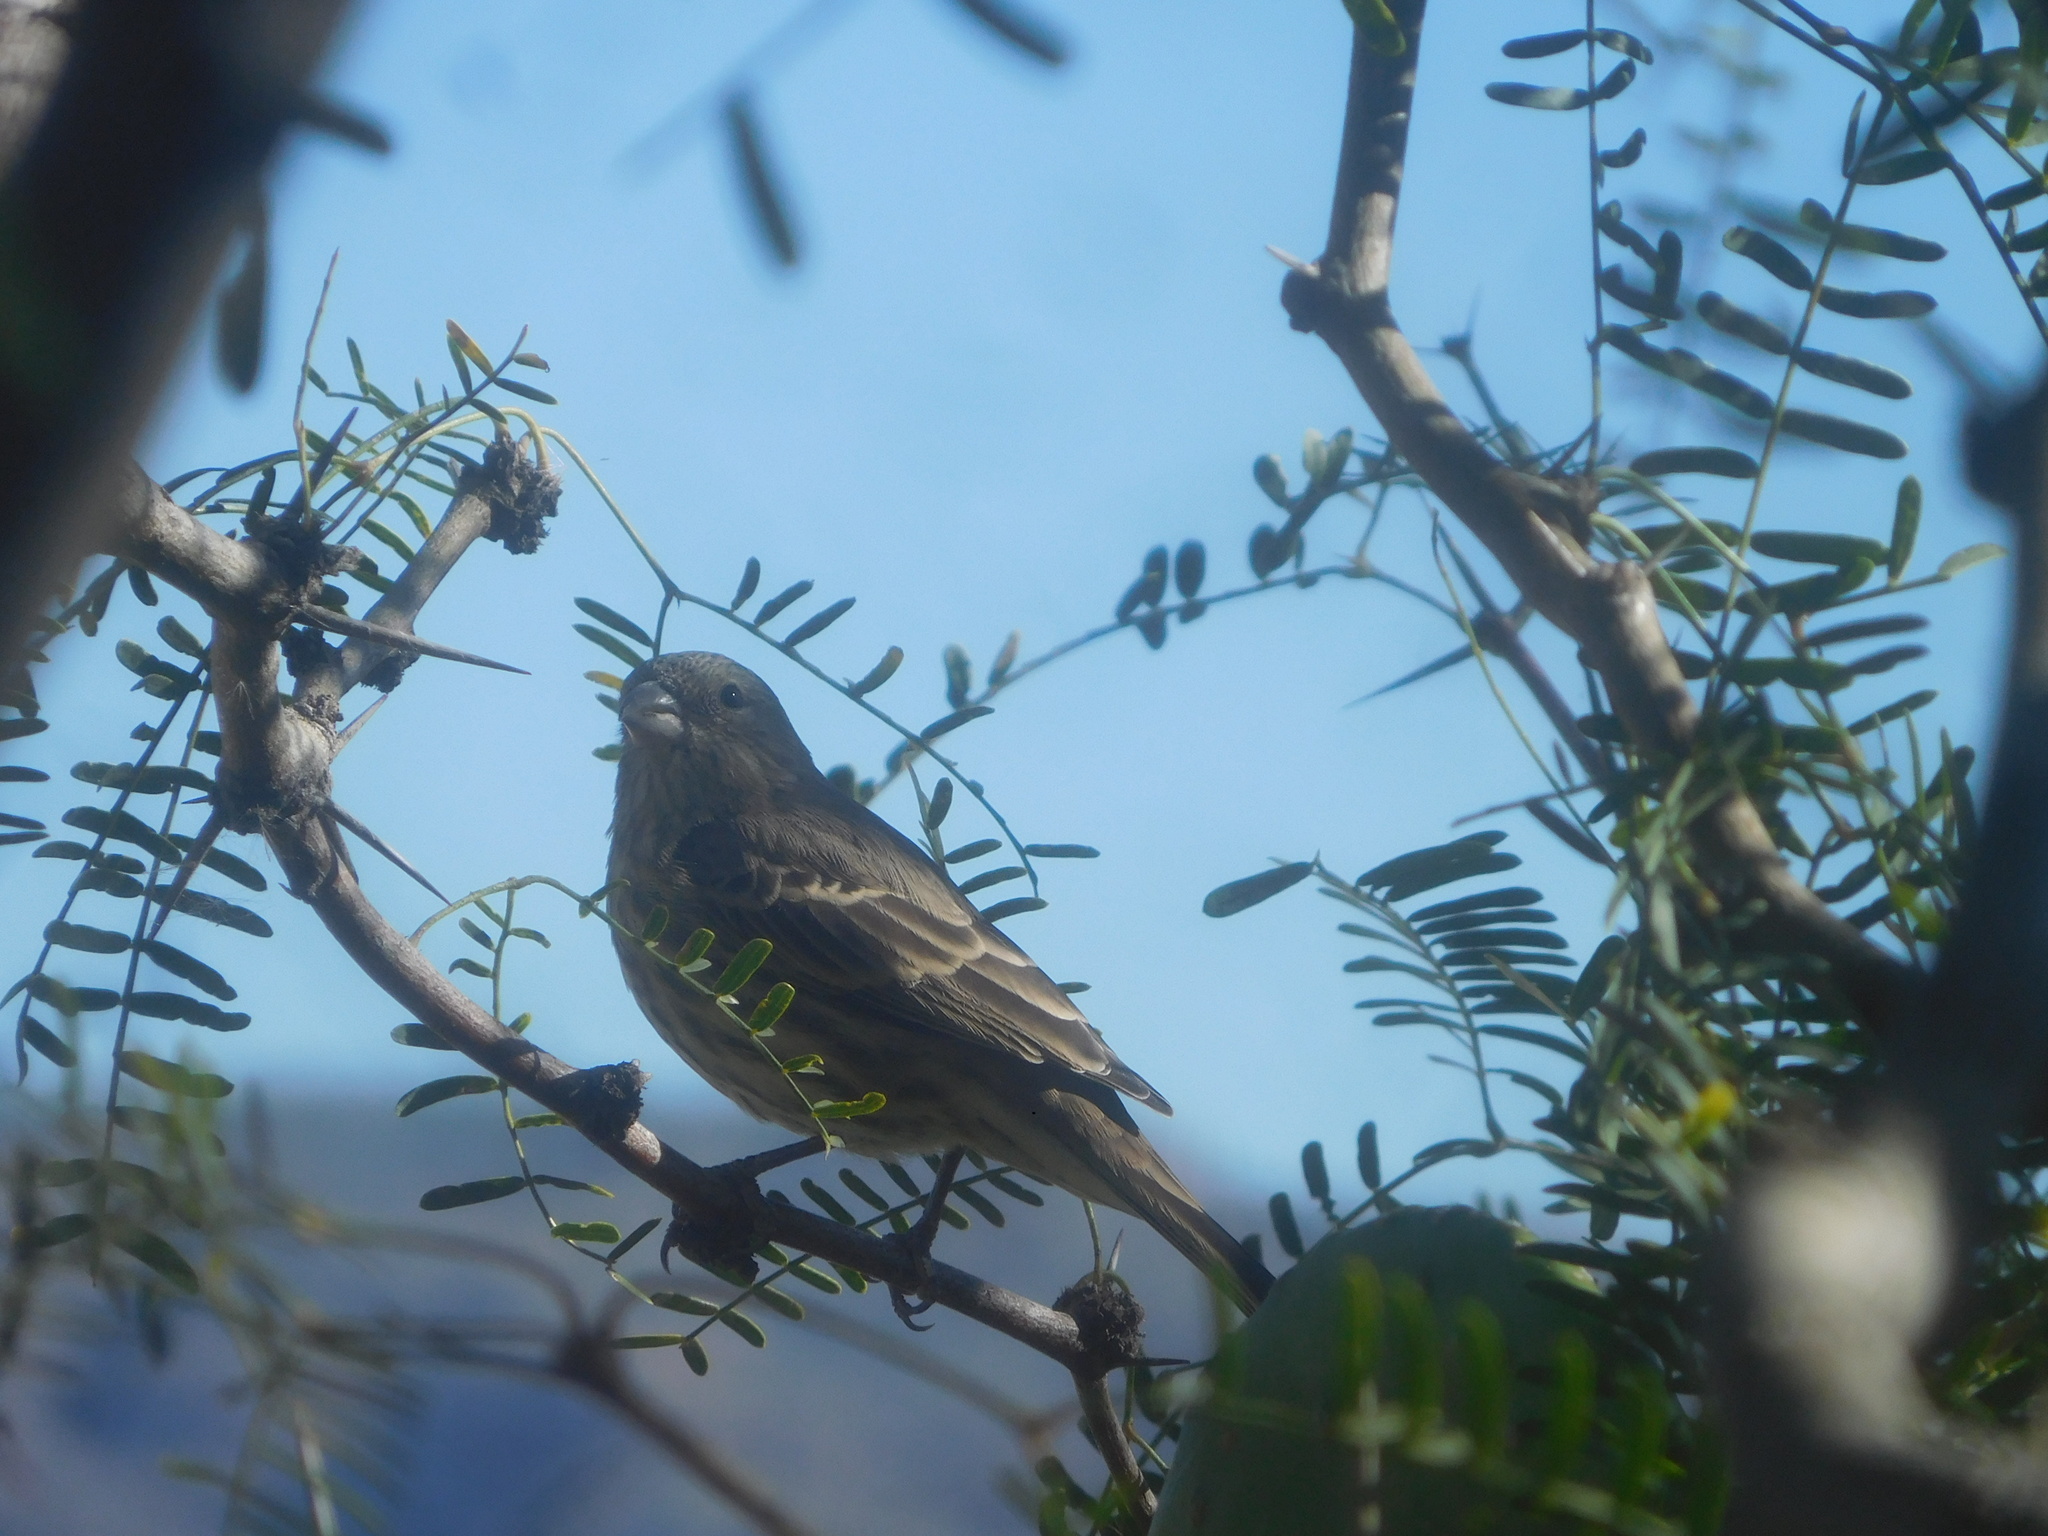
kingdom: Animalia
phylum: Chordata
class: Aves
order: Passeriformes
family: Fringillidae
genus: Haemorhous
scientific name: Haemorhous mexicanus
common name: House finch
